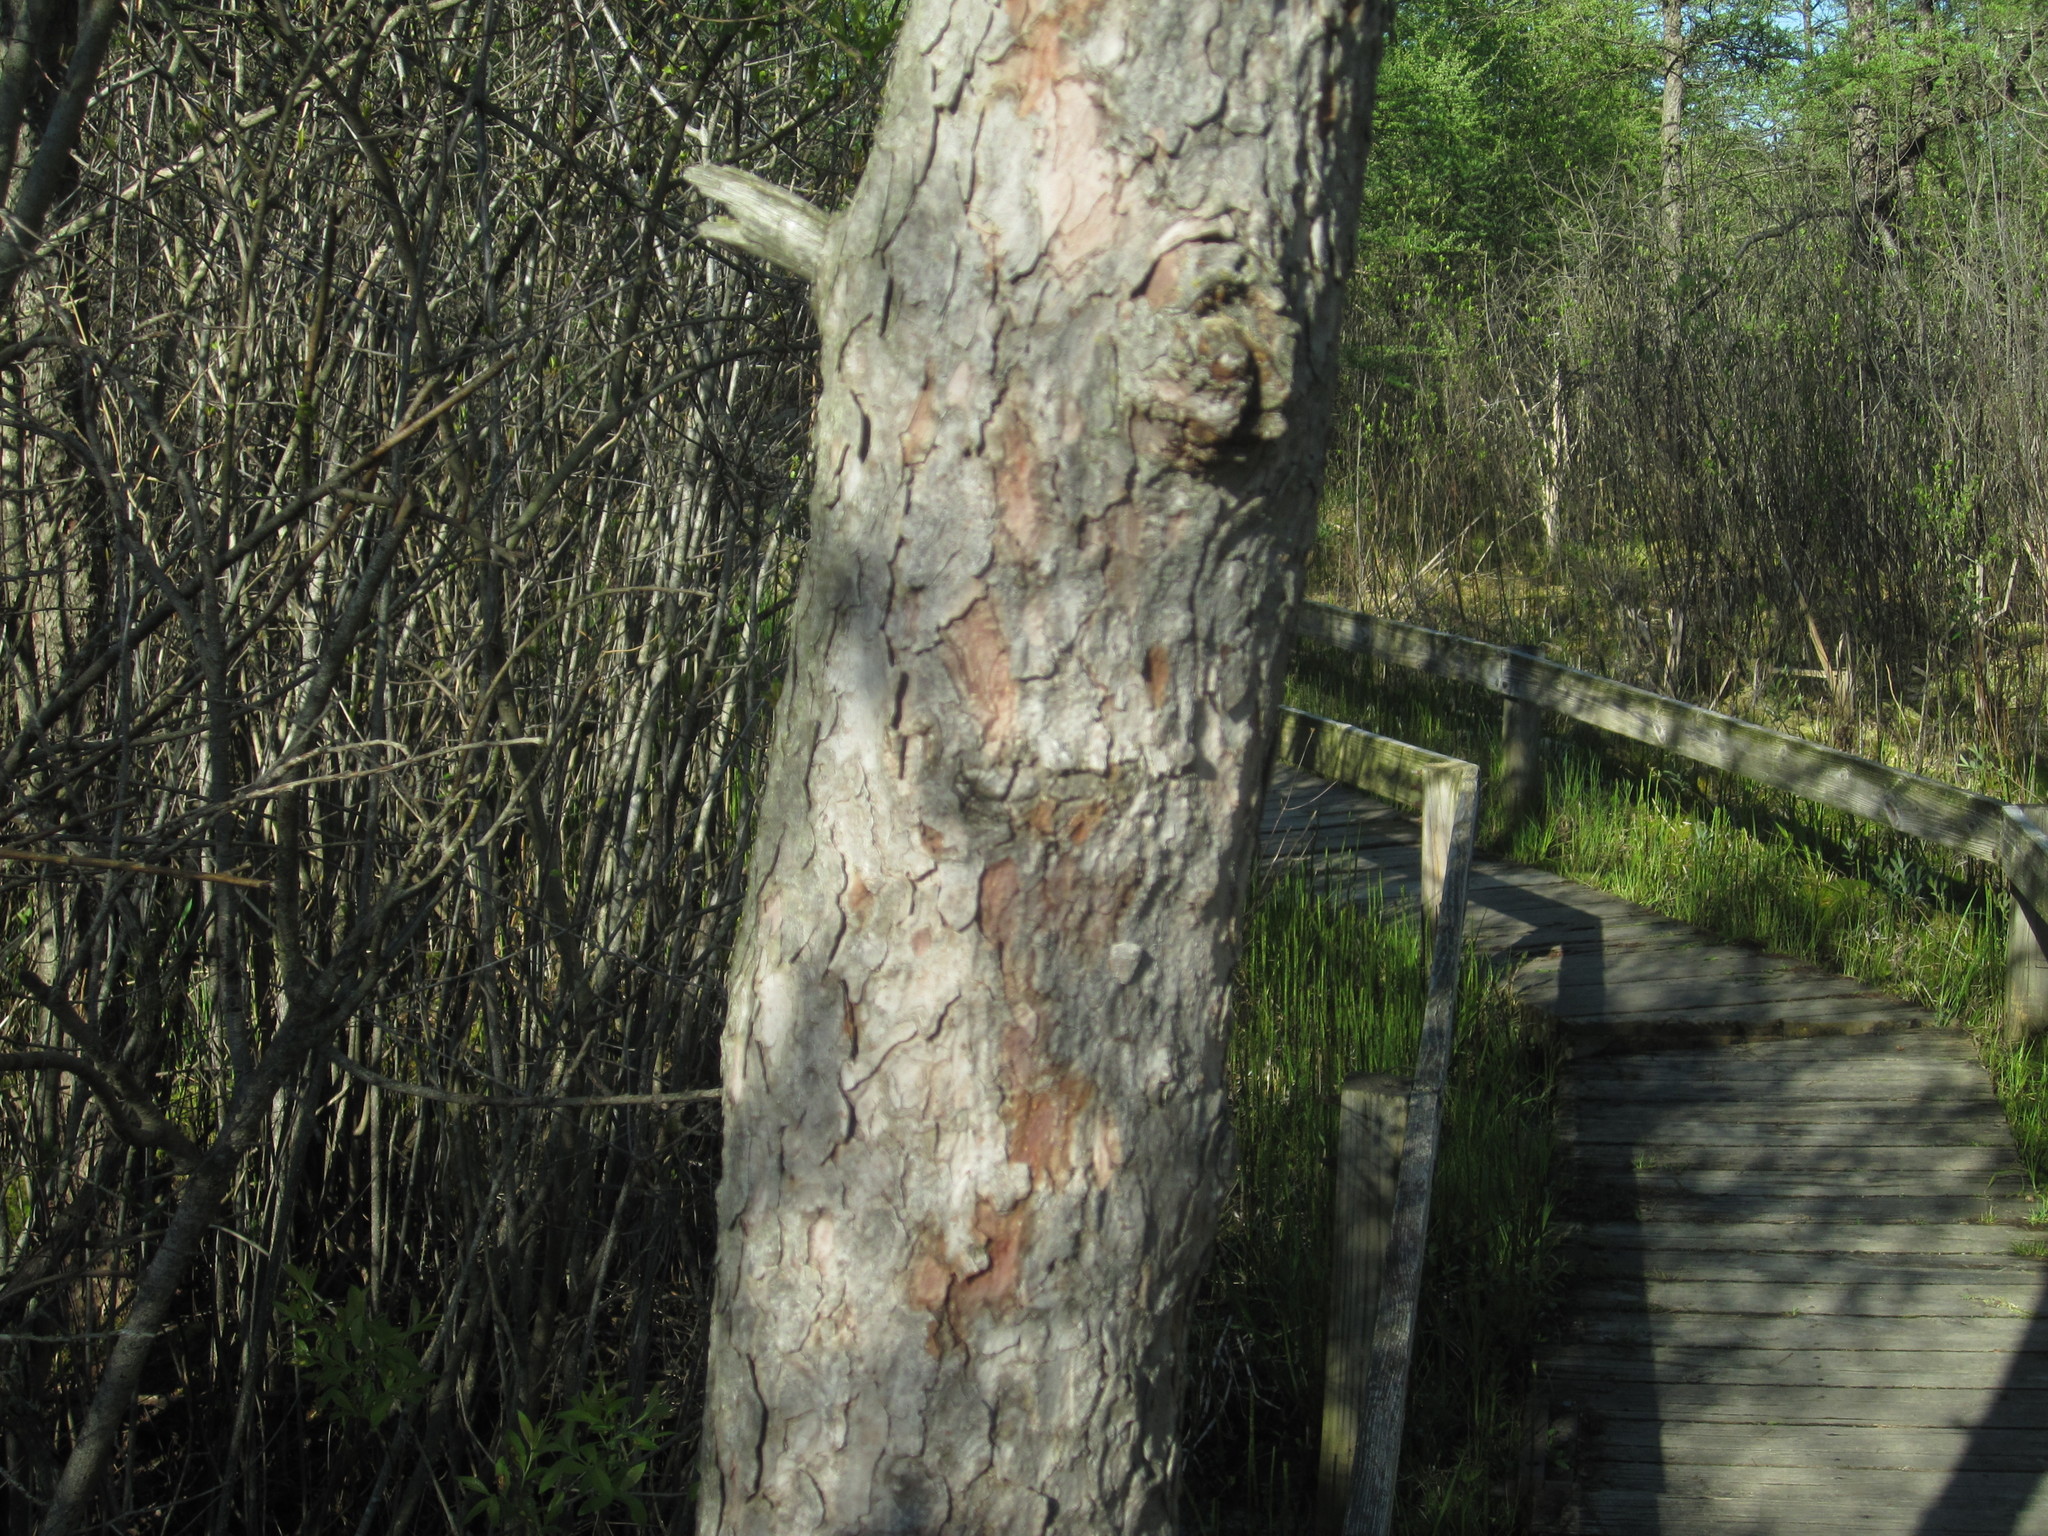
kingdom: Plantae
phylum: Tracheophyta
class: Pinopsida
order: Pinales
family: Pinaceae
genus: Larix
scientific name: Larix laricina
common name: American larch
